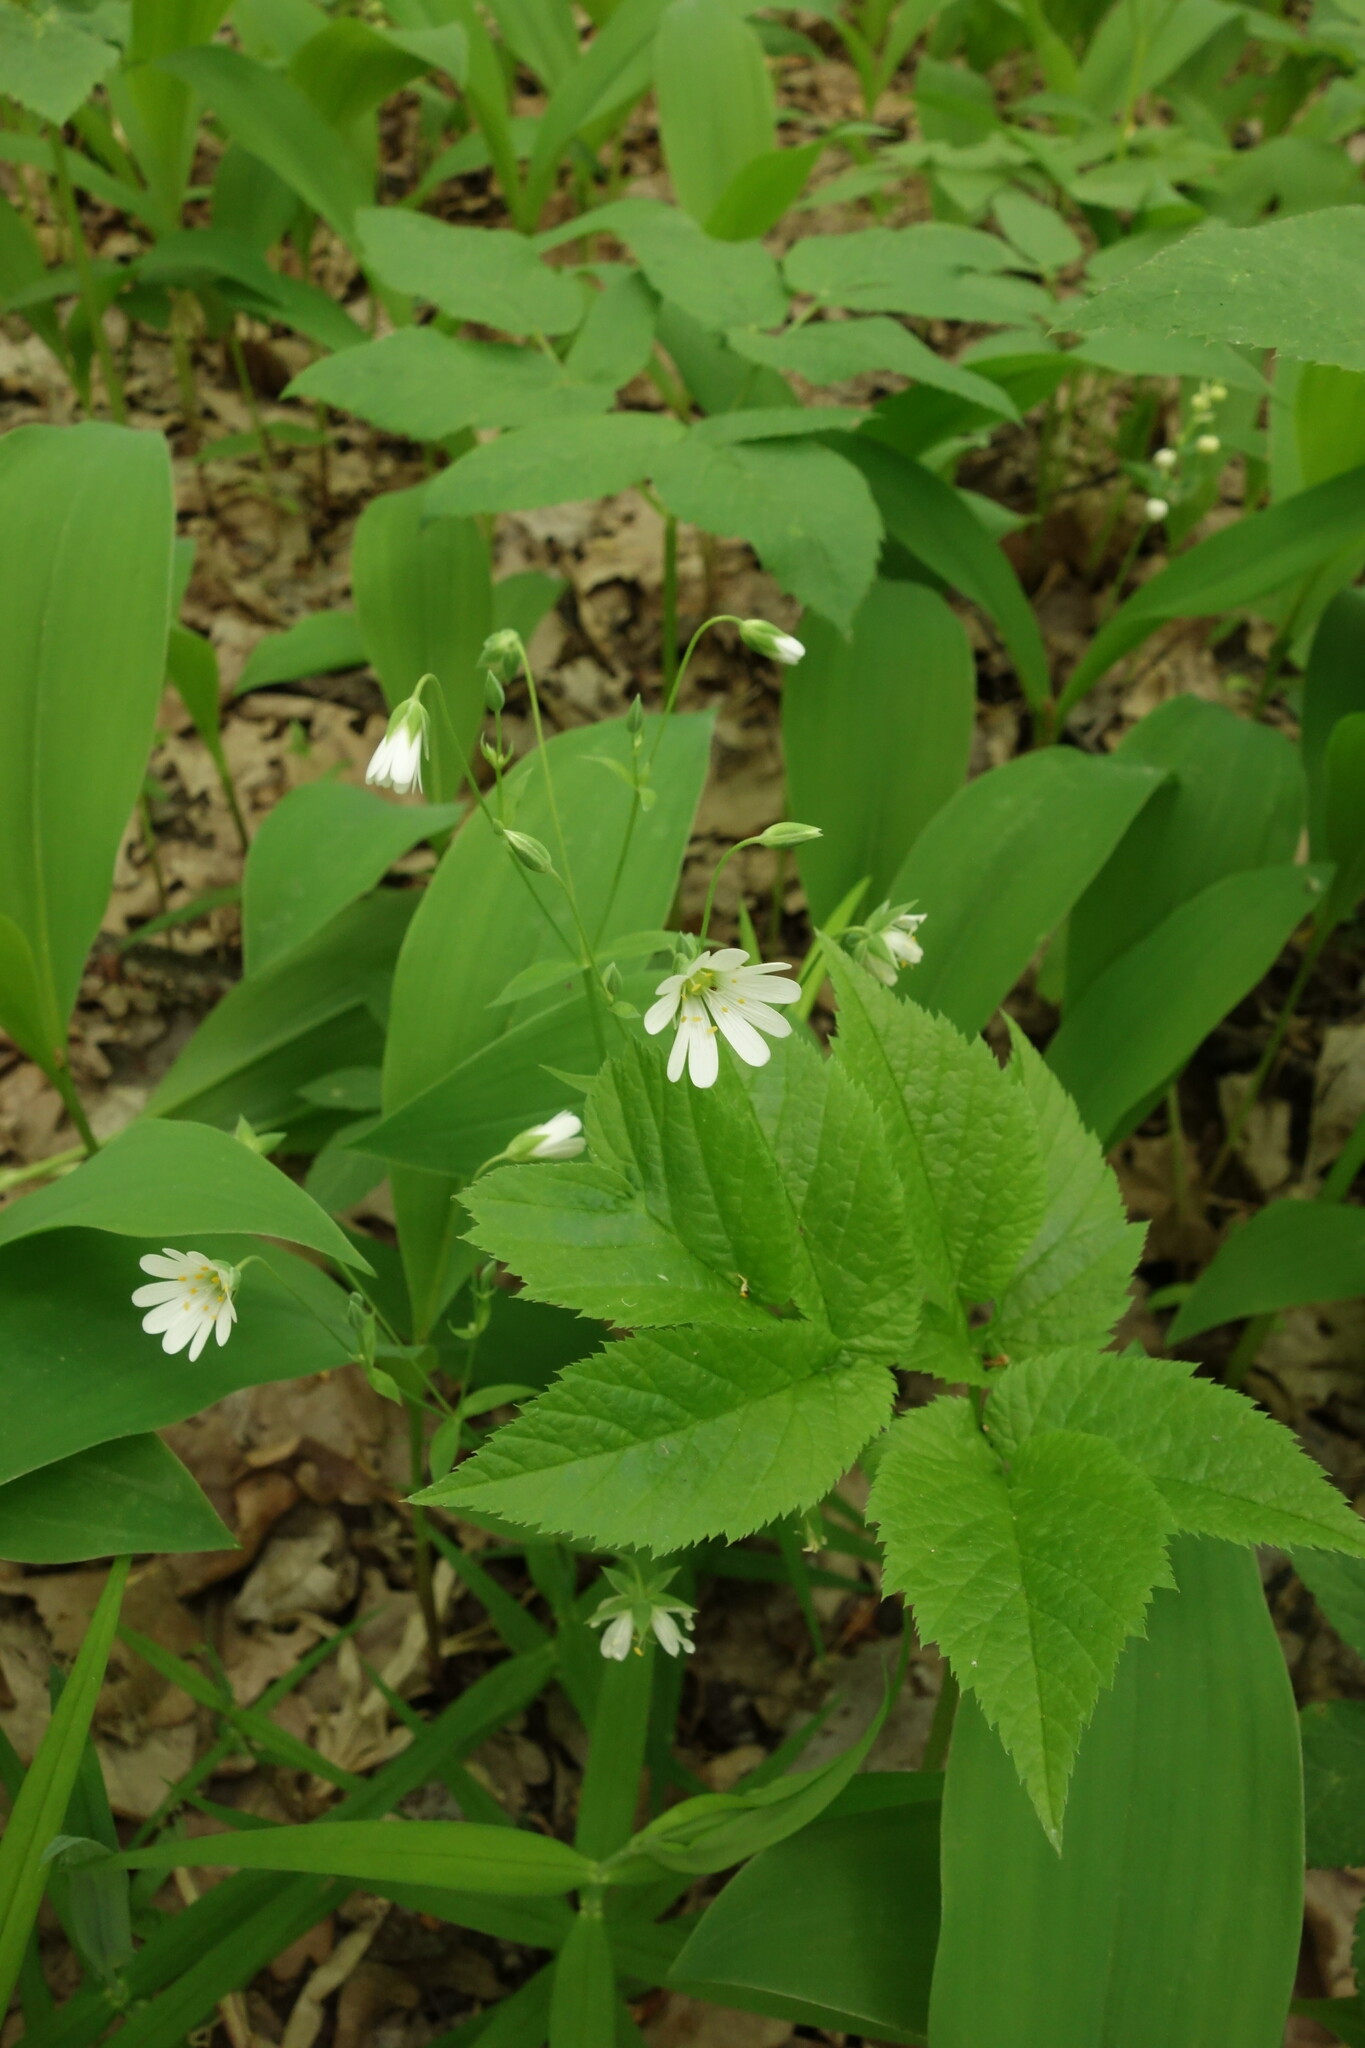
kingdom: Plantae
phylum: Tracheophyta
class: Magnoliopsida
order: Caryophyllales
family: Caryophyllaceae
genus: Rabelera
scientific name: Rabelera holostea
